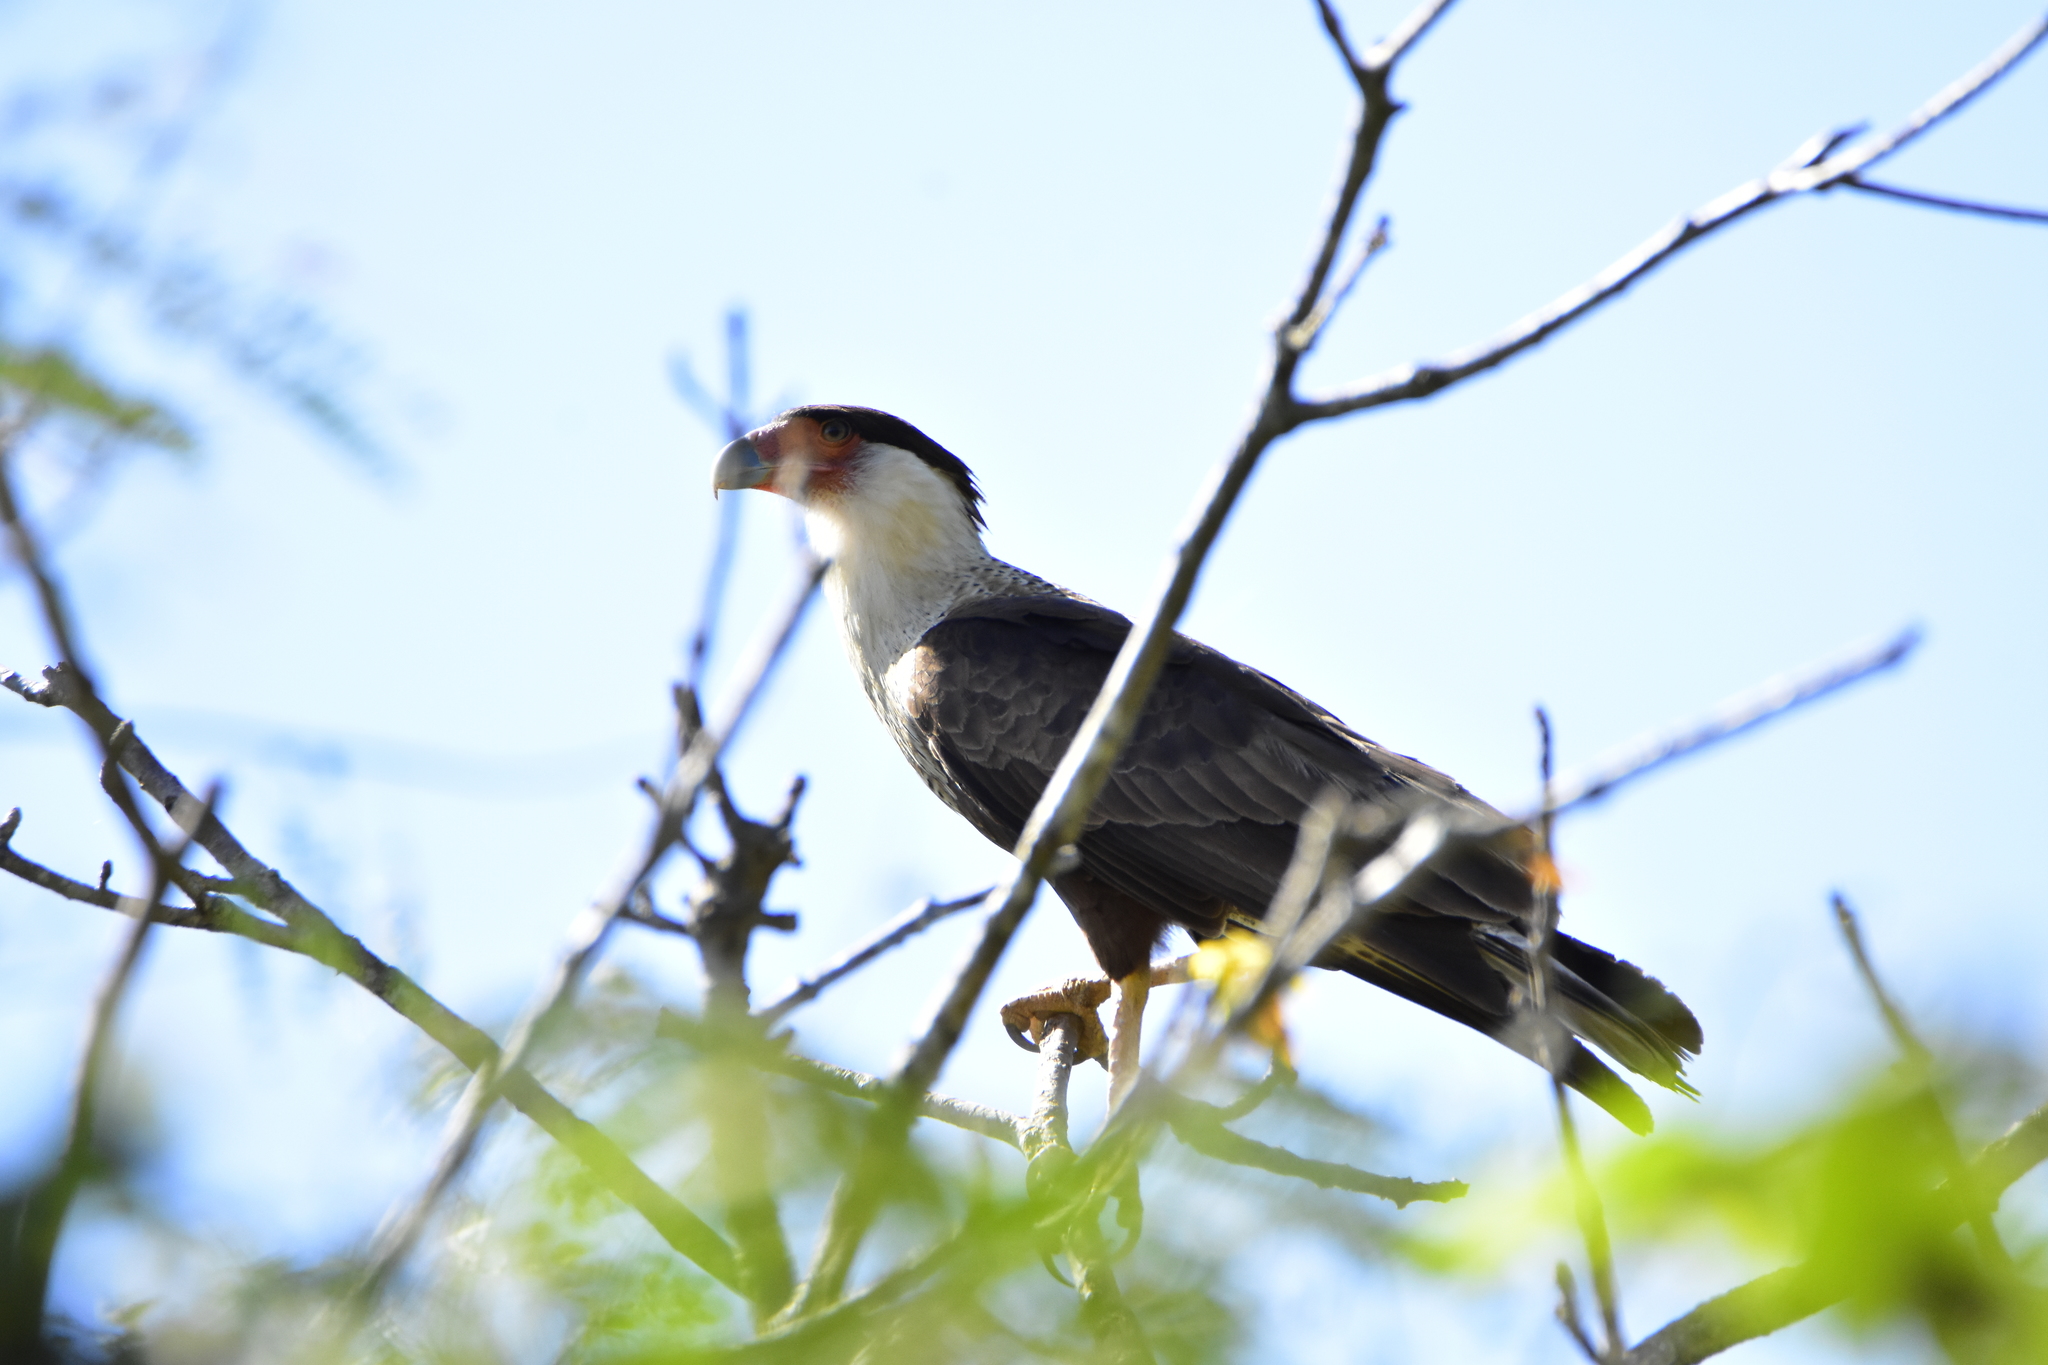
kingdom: Animalia
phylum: Chordata
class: Aves
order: Falconiformes
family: Falconidae
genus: Caracara
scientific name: Caracara plancus
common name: Southern caracara
